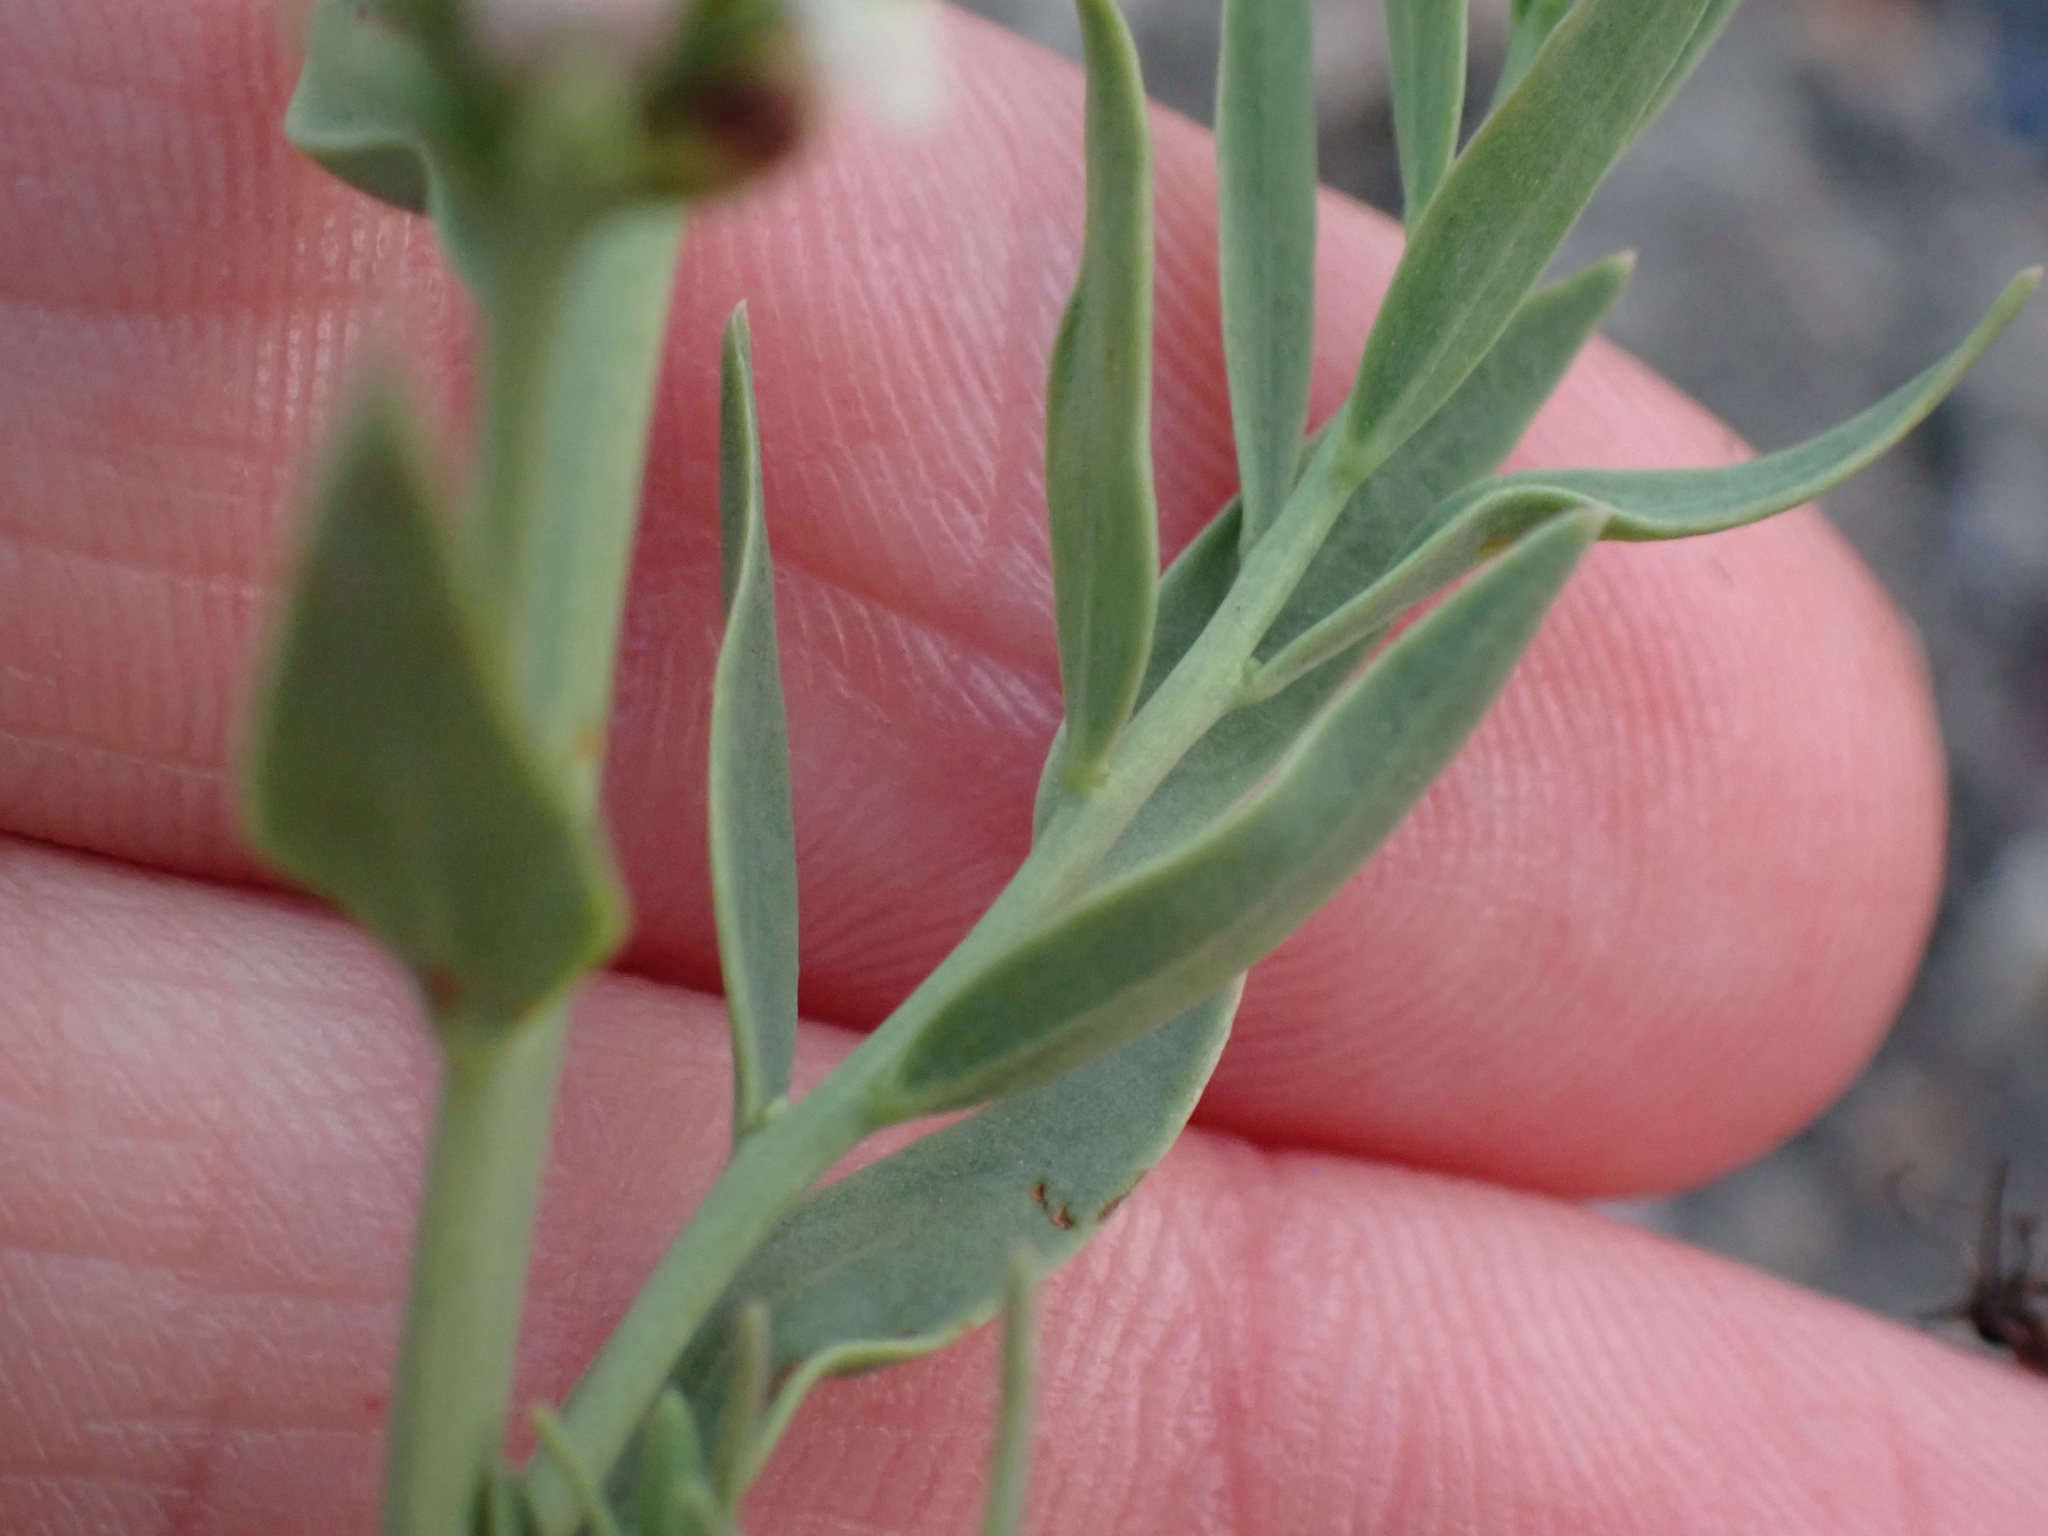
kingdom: Plantae
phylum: Tracheophyta
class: Magnoliopsida
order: Santalales
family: Comandraceae
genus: Comandra
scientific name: Comandra umbellata
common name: Bastard toadflax
